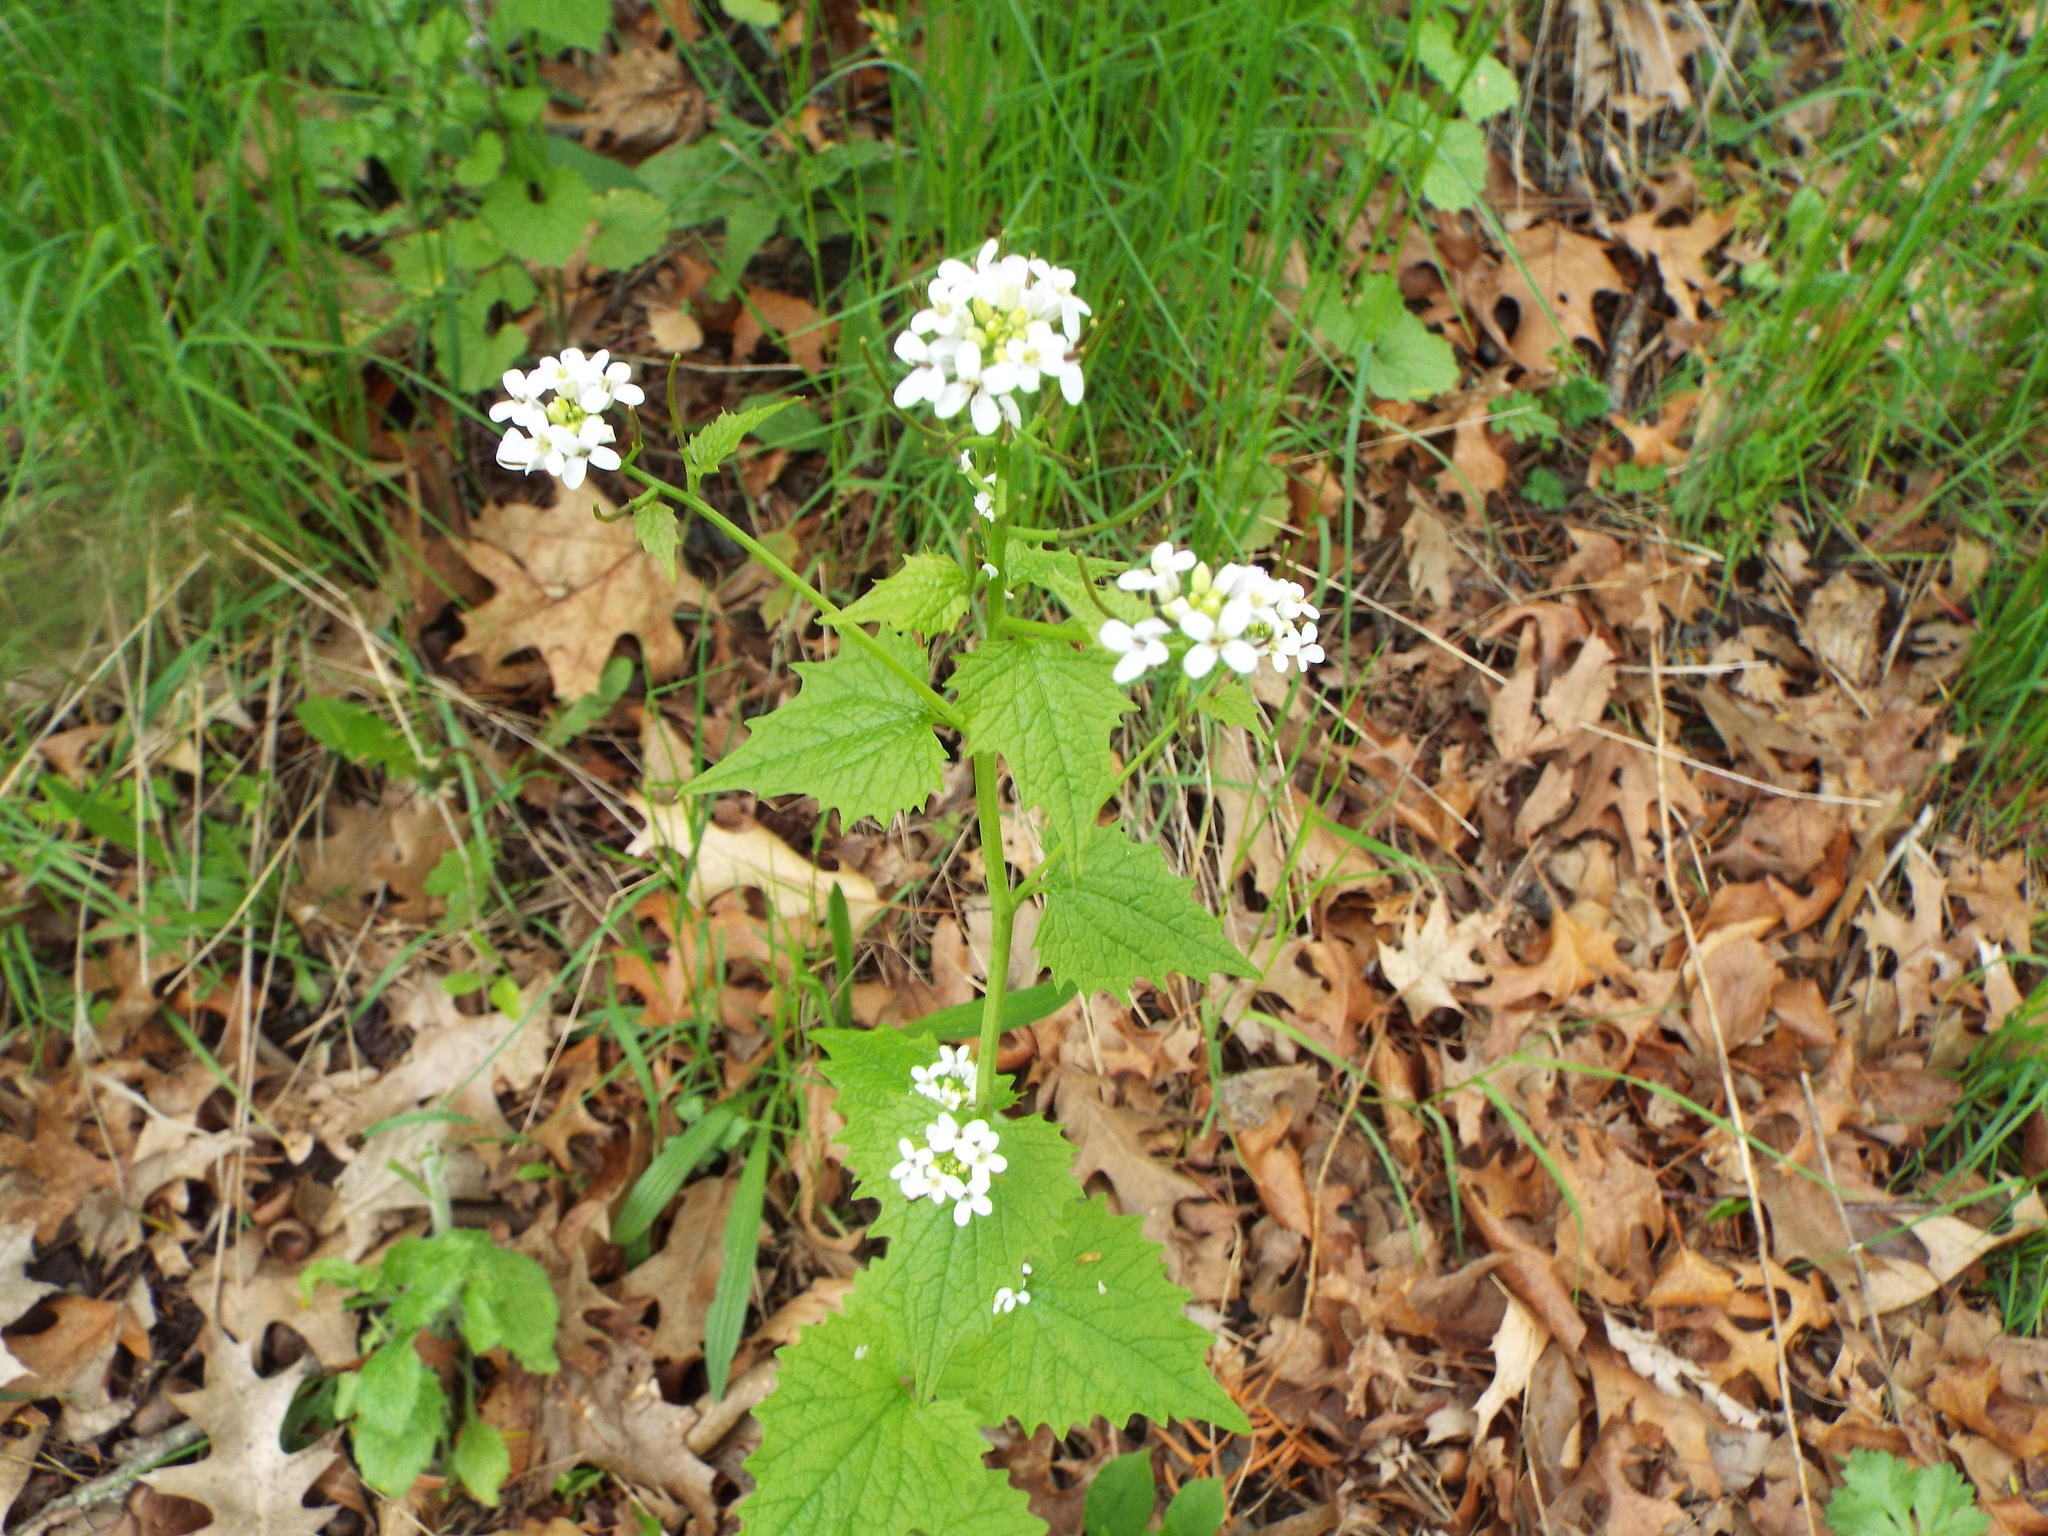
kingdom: Plantae
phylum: Tracheophyta
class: Magnoliopsida
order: Brassicales
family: Brassicaceae
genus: Alliaria
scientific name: Alliaria petiolata
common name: Garlic mustard
